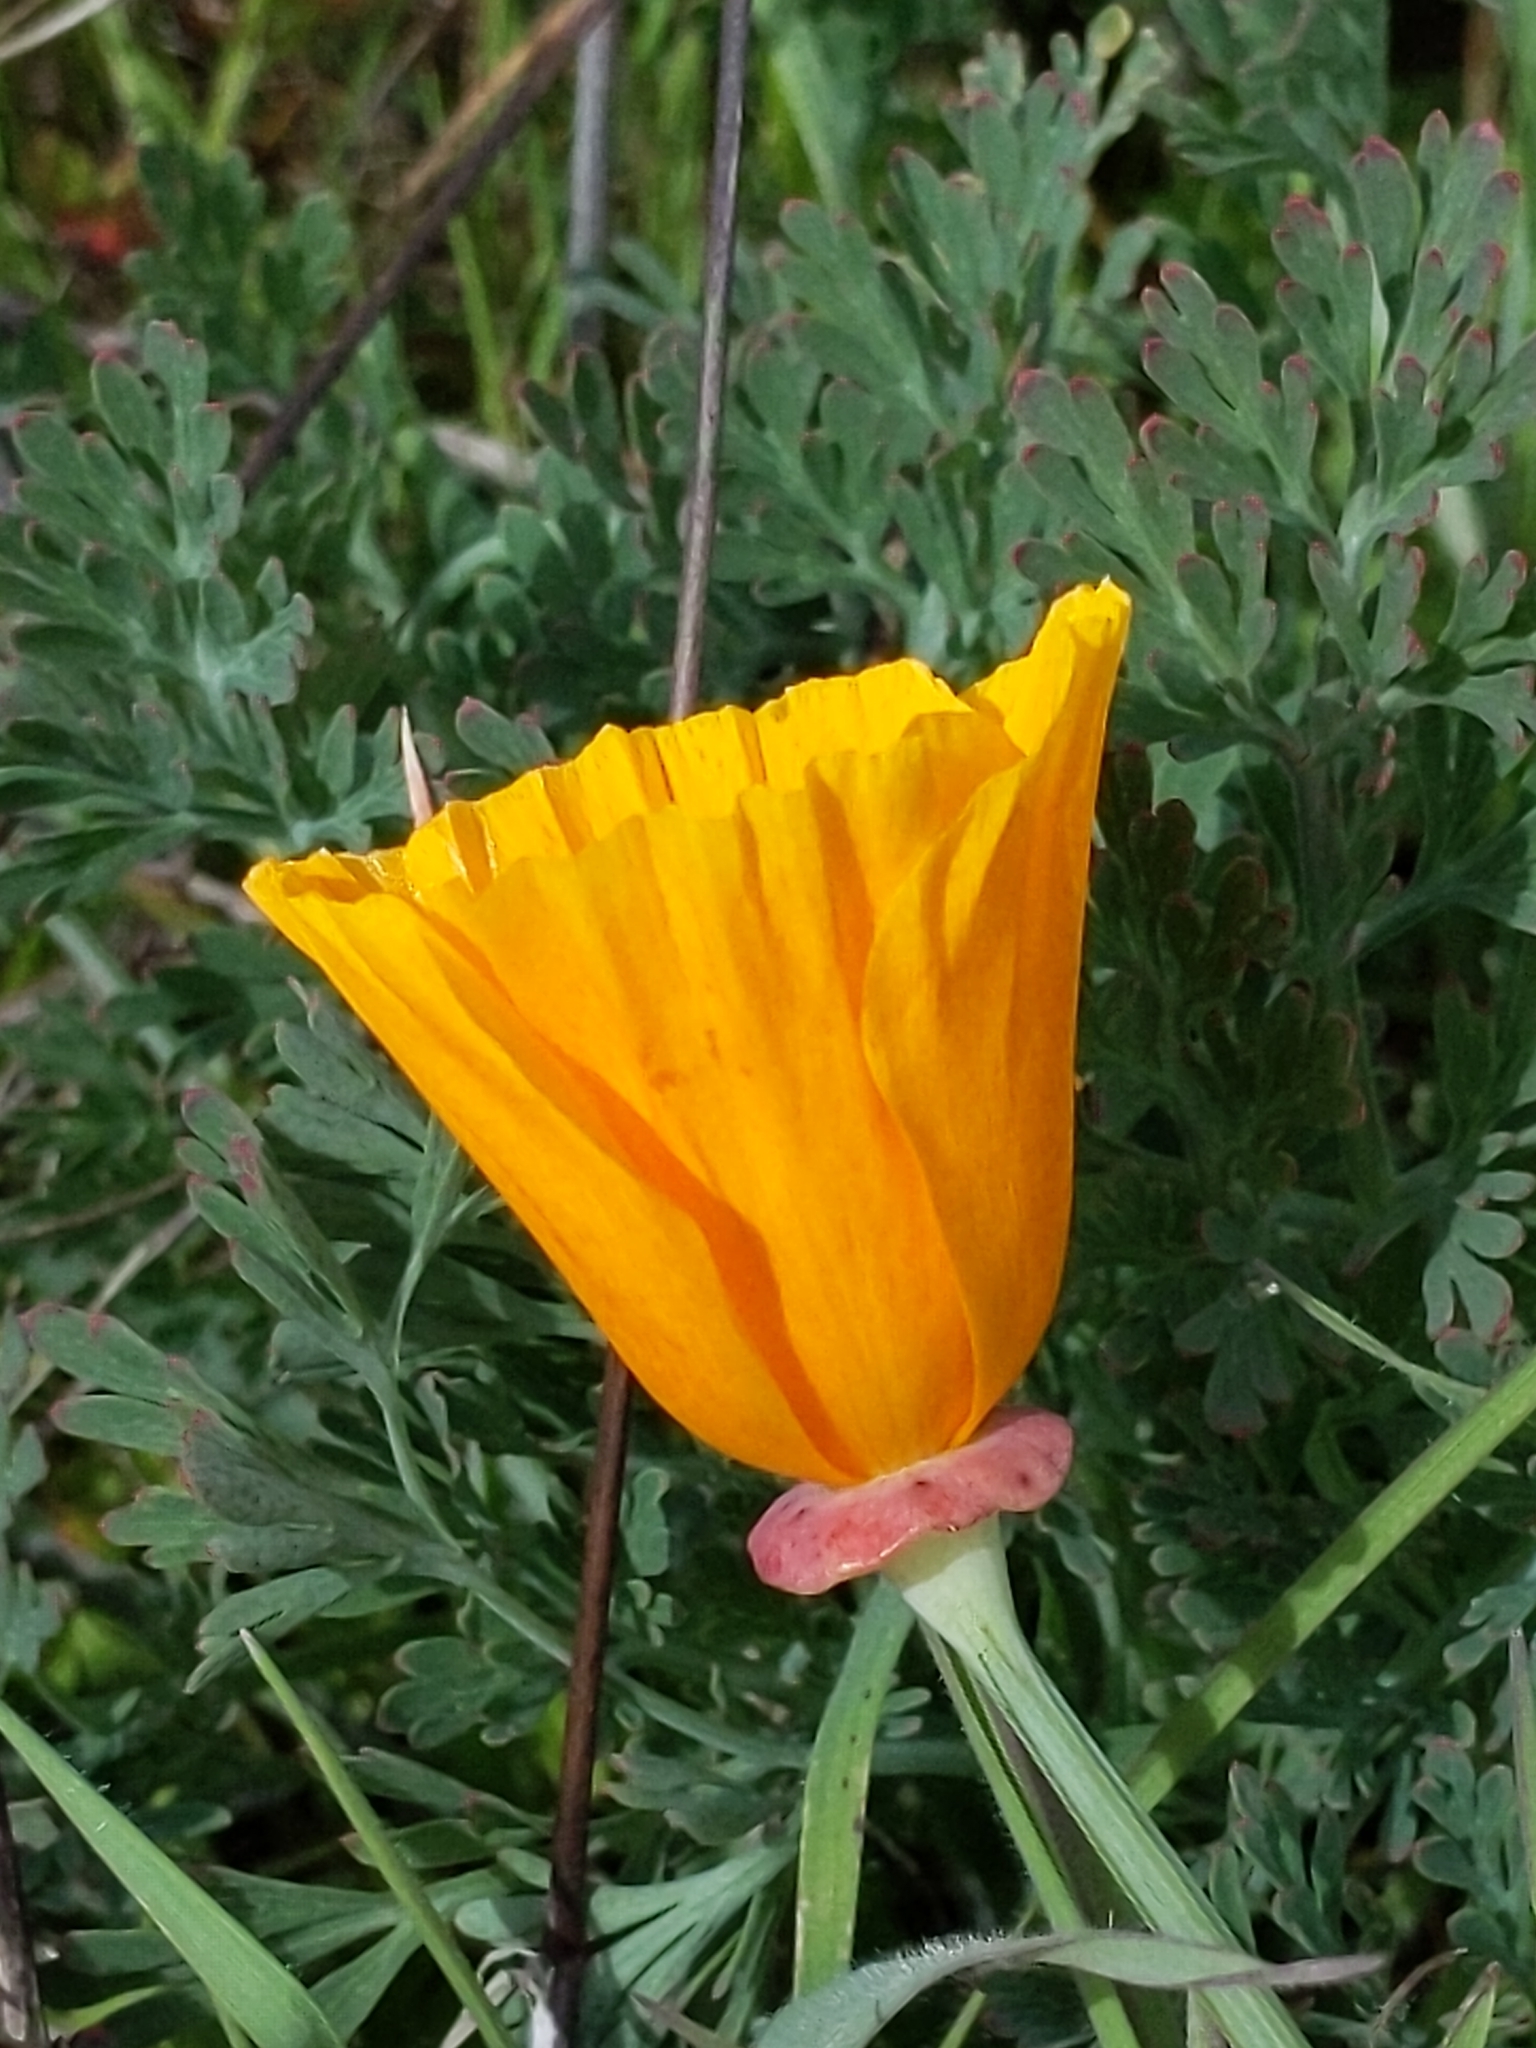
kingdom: Plantae
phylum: Tracheophyta
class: Magnoliopsida
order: Ranunculales
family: Papaveraceae
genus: Eschscholzia
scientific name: Eschscholzia californica
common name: California poppy
